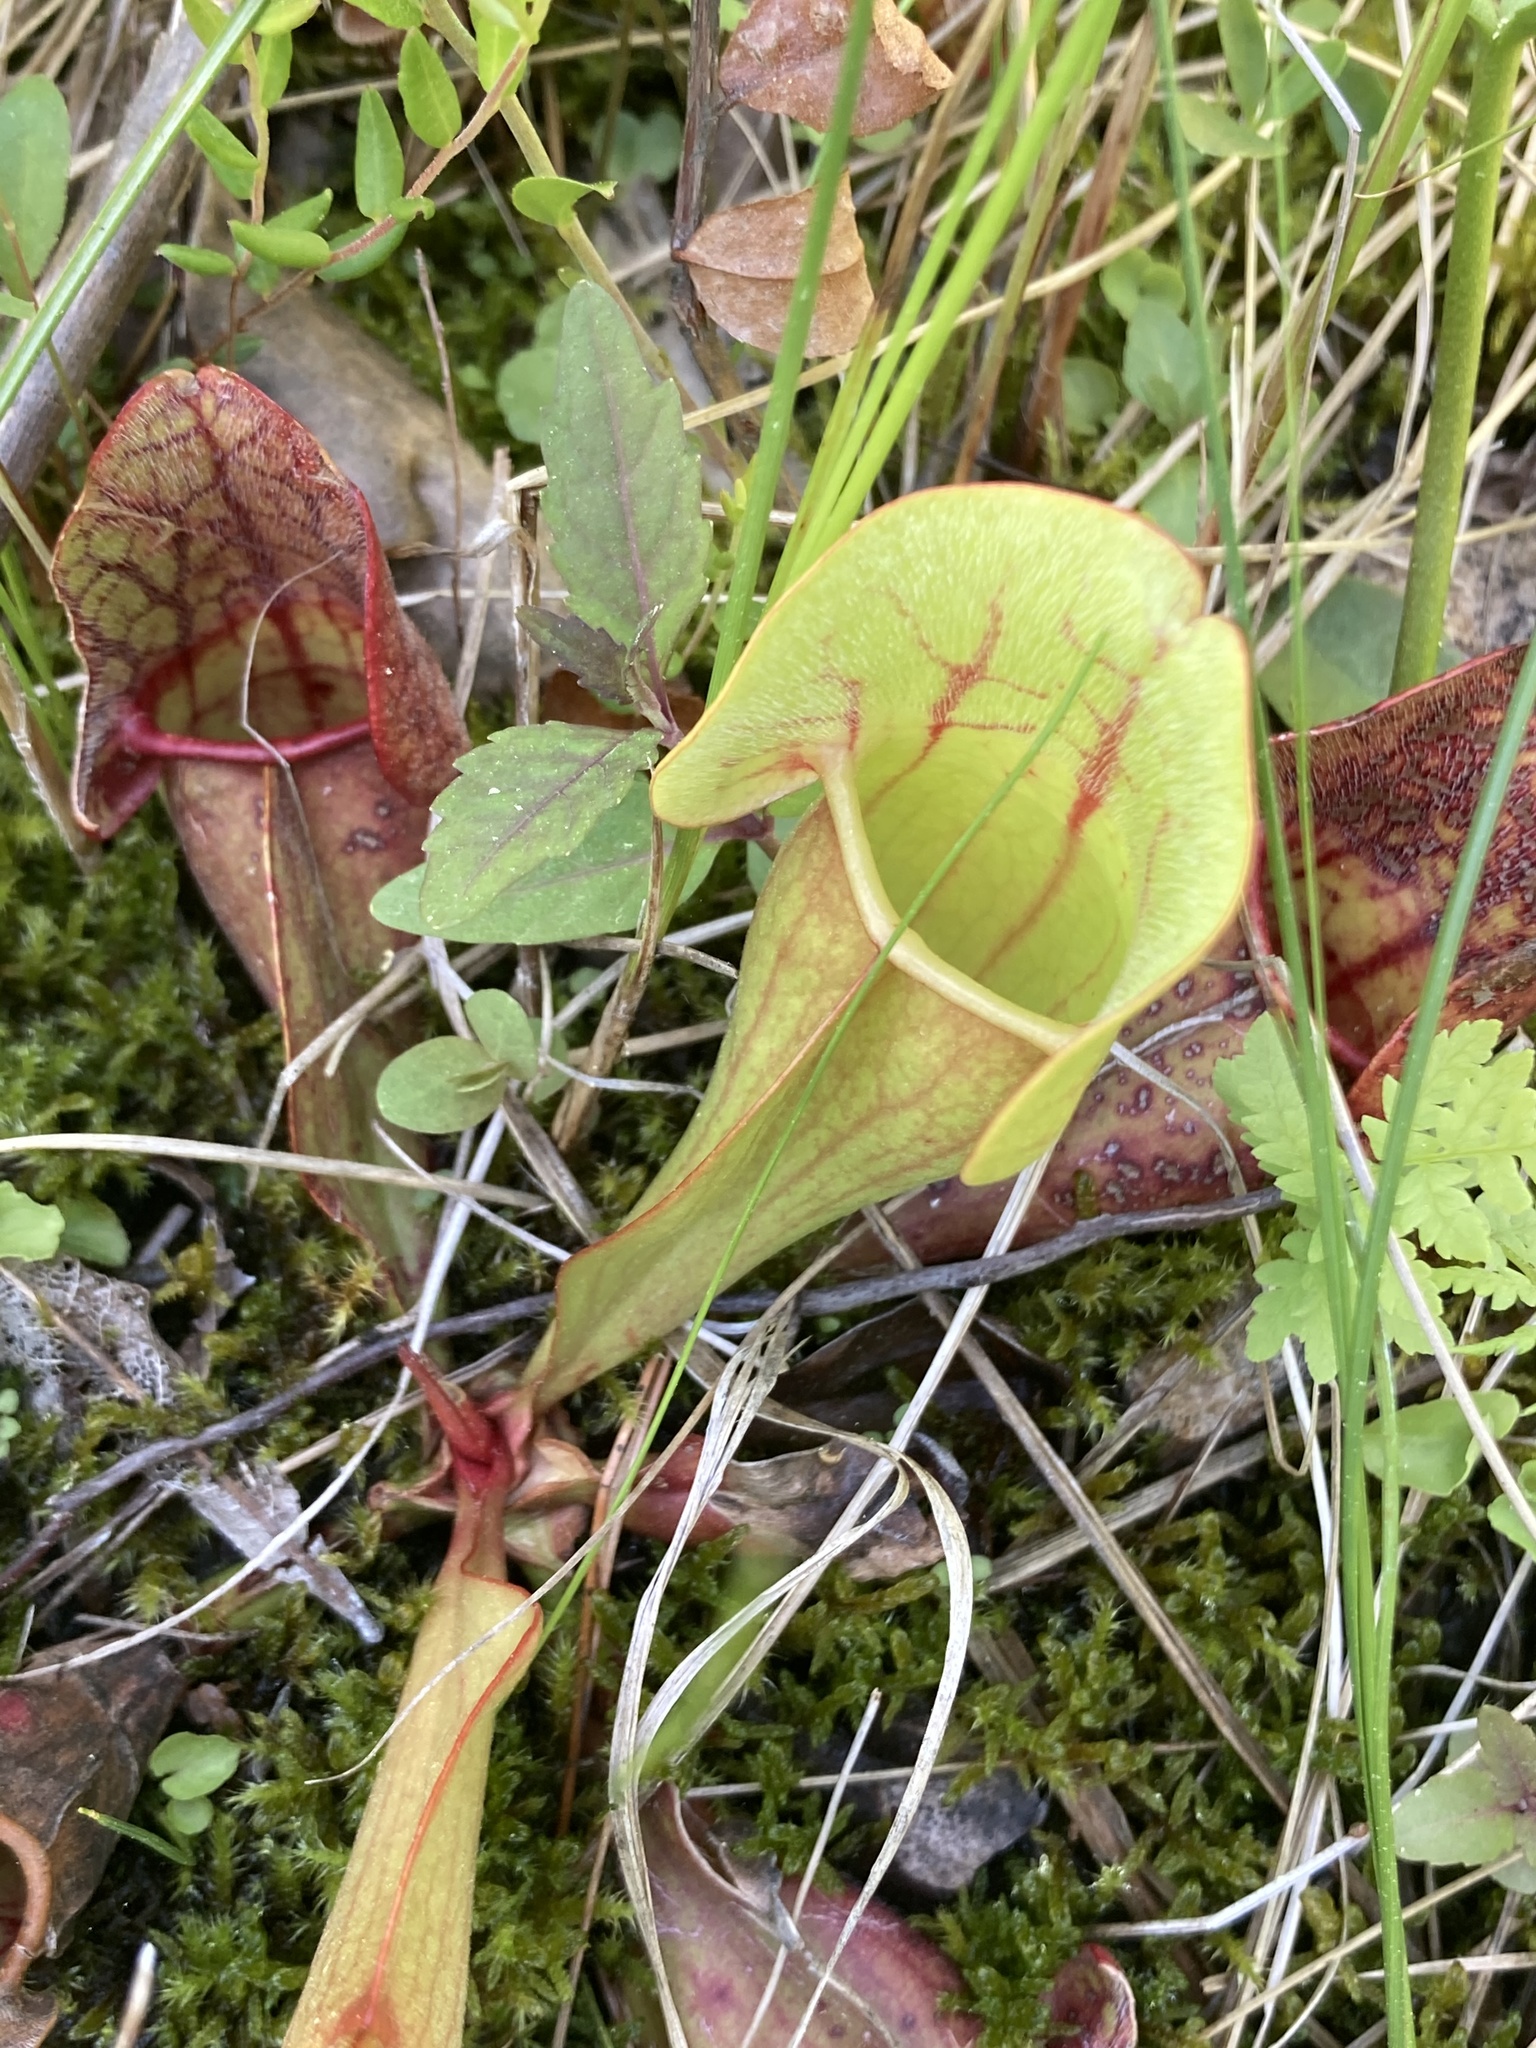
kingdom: Plantae
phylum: Tracheophyta
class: Magnoliopsida
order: Ericales
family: Sarraceniaceae
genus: Sarracenia
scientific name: Sarracenia purpurea
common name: Pitcherplant
